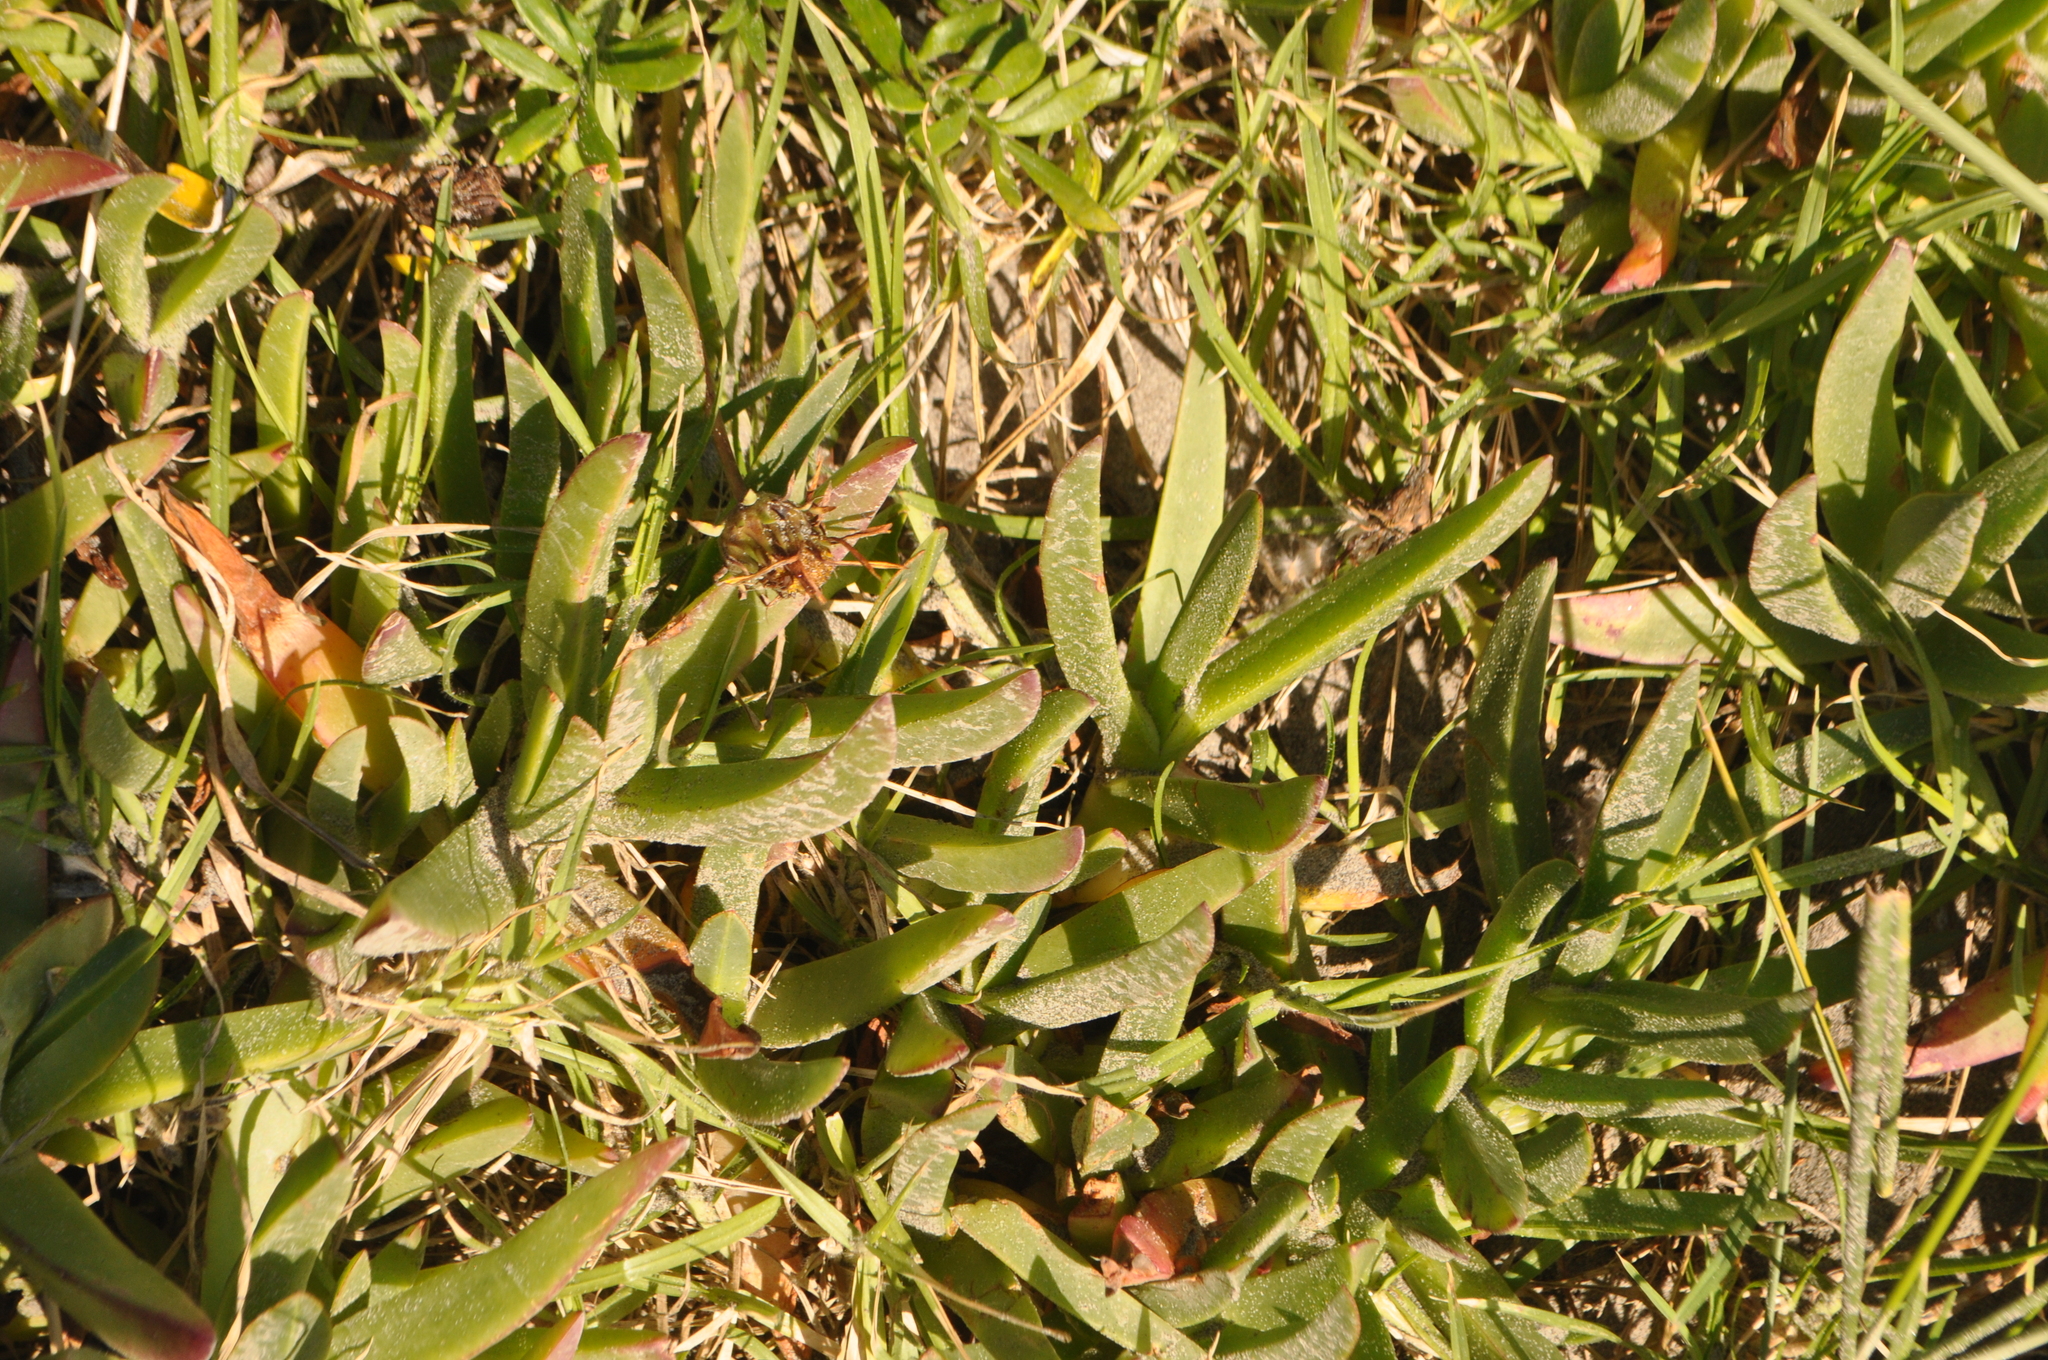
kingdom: Plantae
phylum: Tracheophyta
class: Magnoliopsida
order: Caryophyllales
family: Aizoaceae
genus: Carpobrotus
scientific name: Carpobrotus edulis
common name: Hottentot-fig
